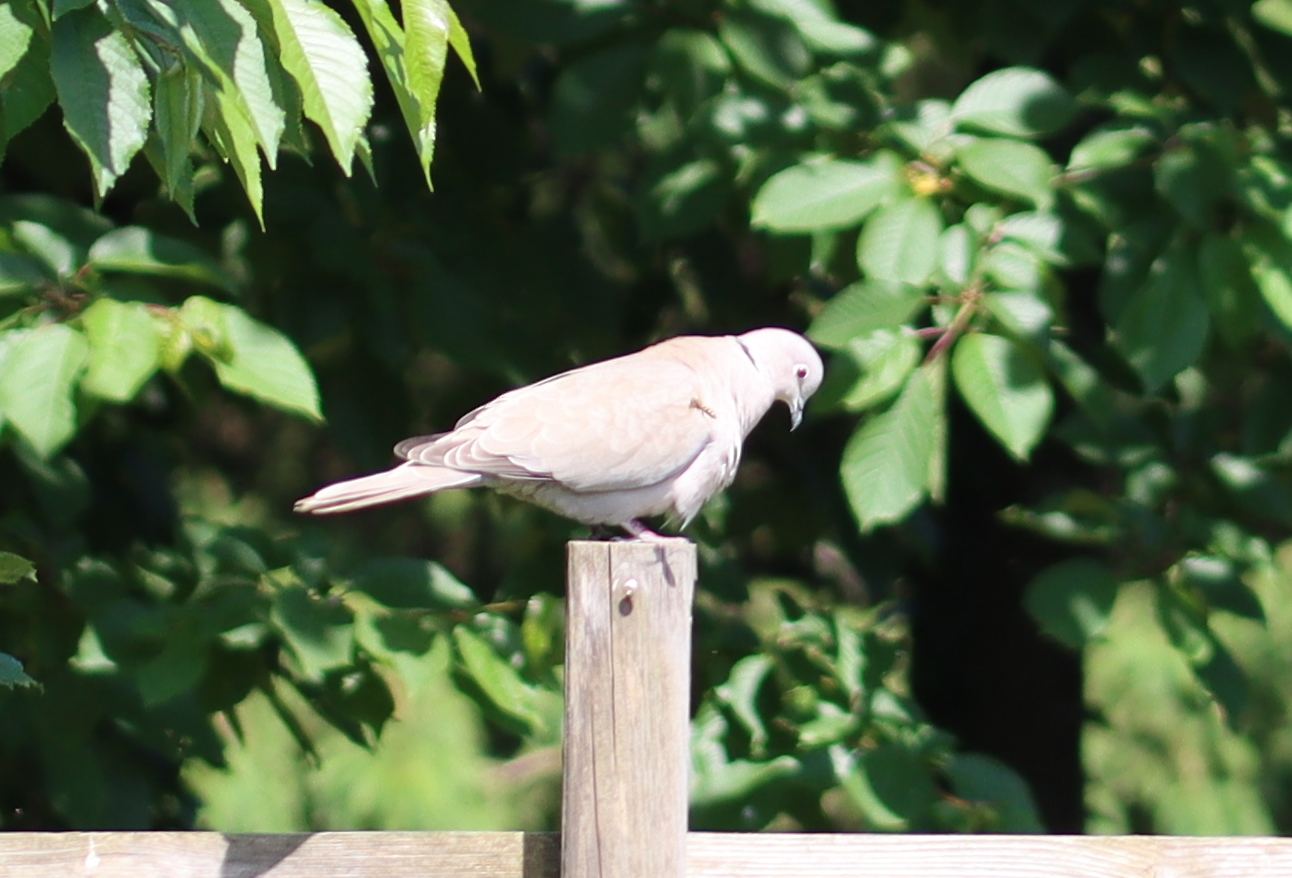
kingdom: Animalia
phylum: Chordata
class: Aves
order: Columbiformes
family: Columbidae
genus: Streptopelia
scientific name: Streptopelia decaocto
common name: Eurasian collared dove
